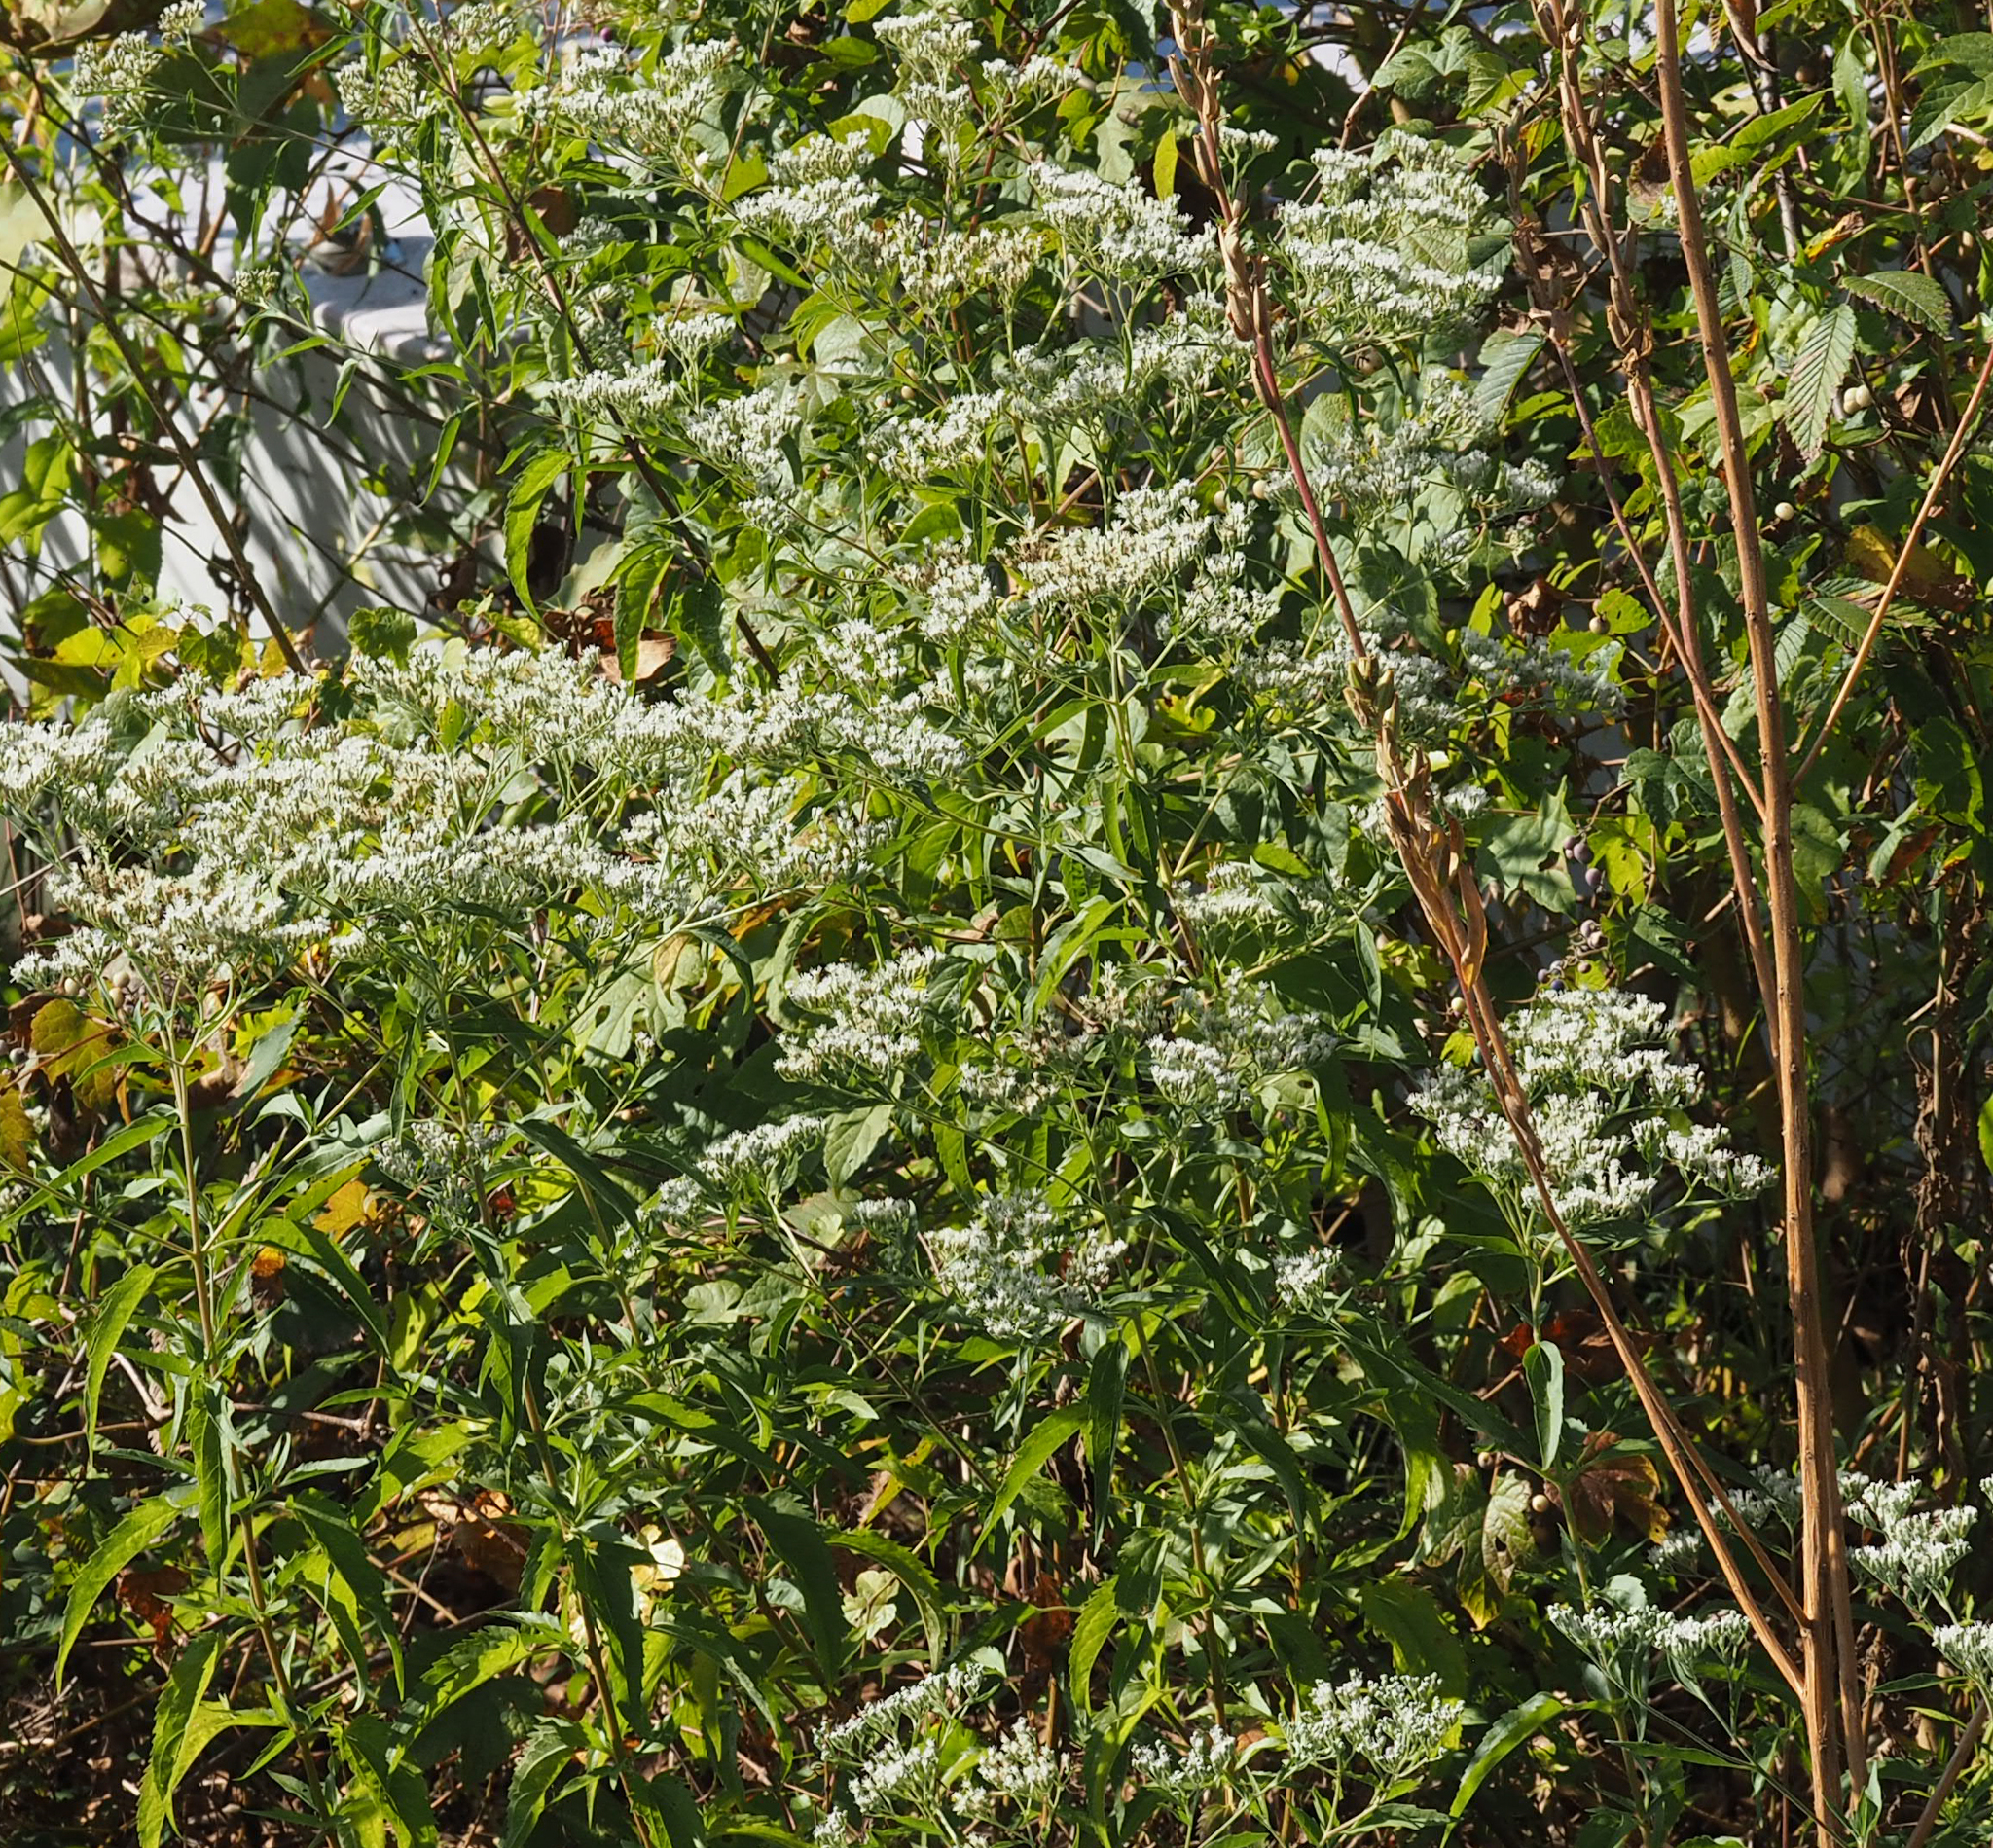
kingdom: Plantae
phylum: Tracheophyta
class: Magnoliopsida
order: Asterales
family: Asteraceae
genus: Eupatorium
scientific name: Eupatorium serotinum
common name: Late boneset
